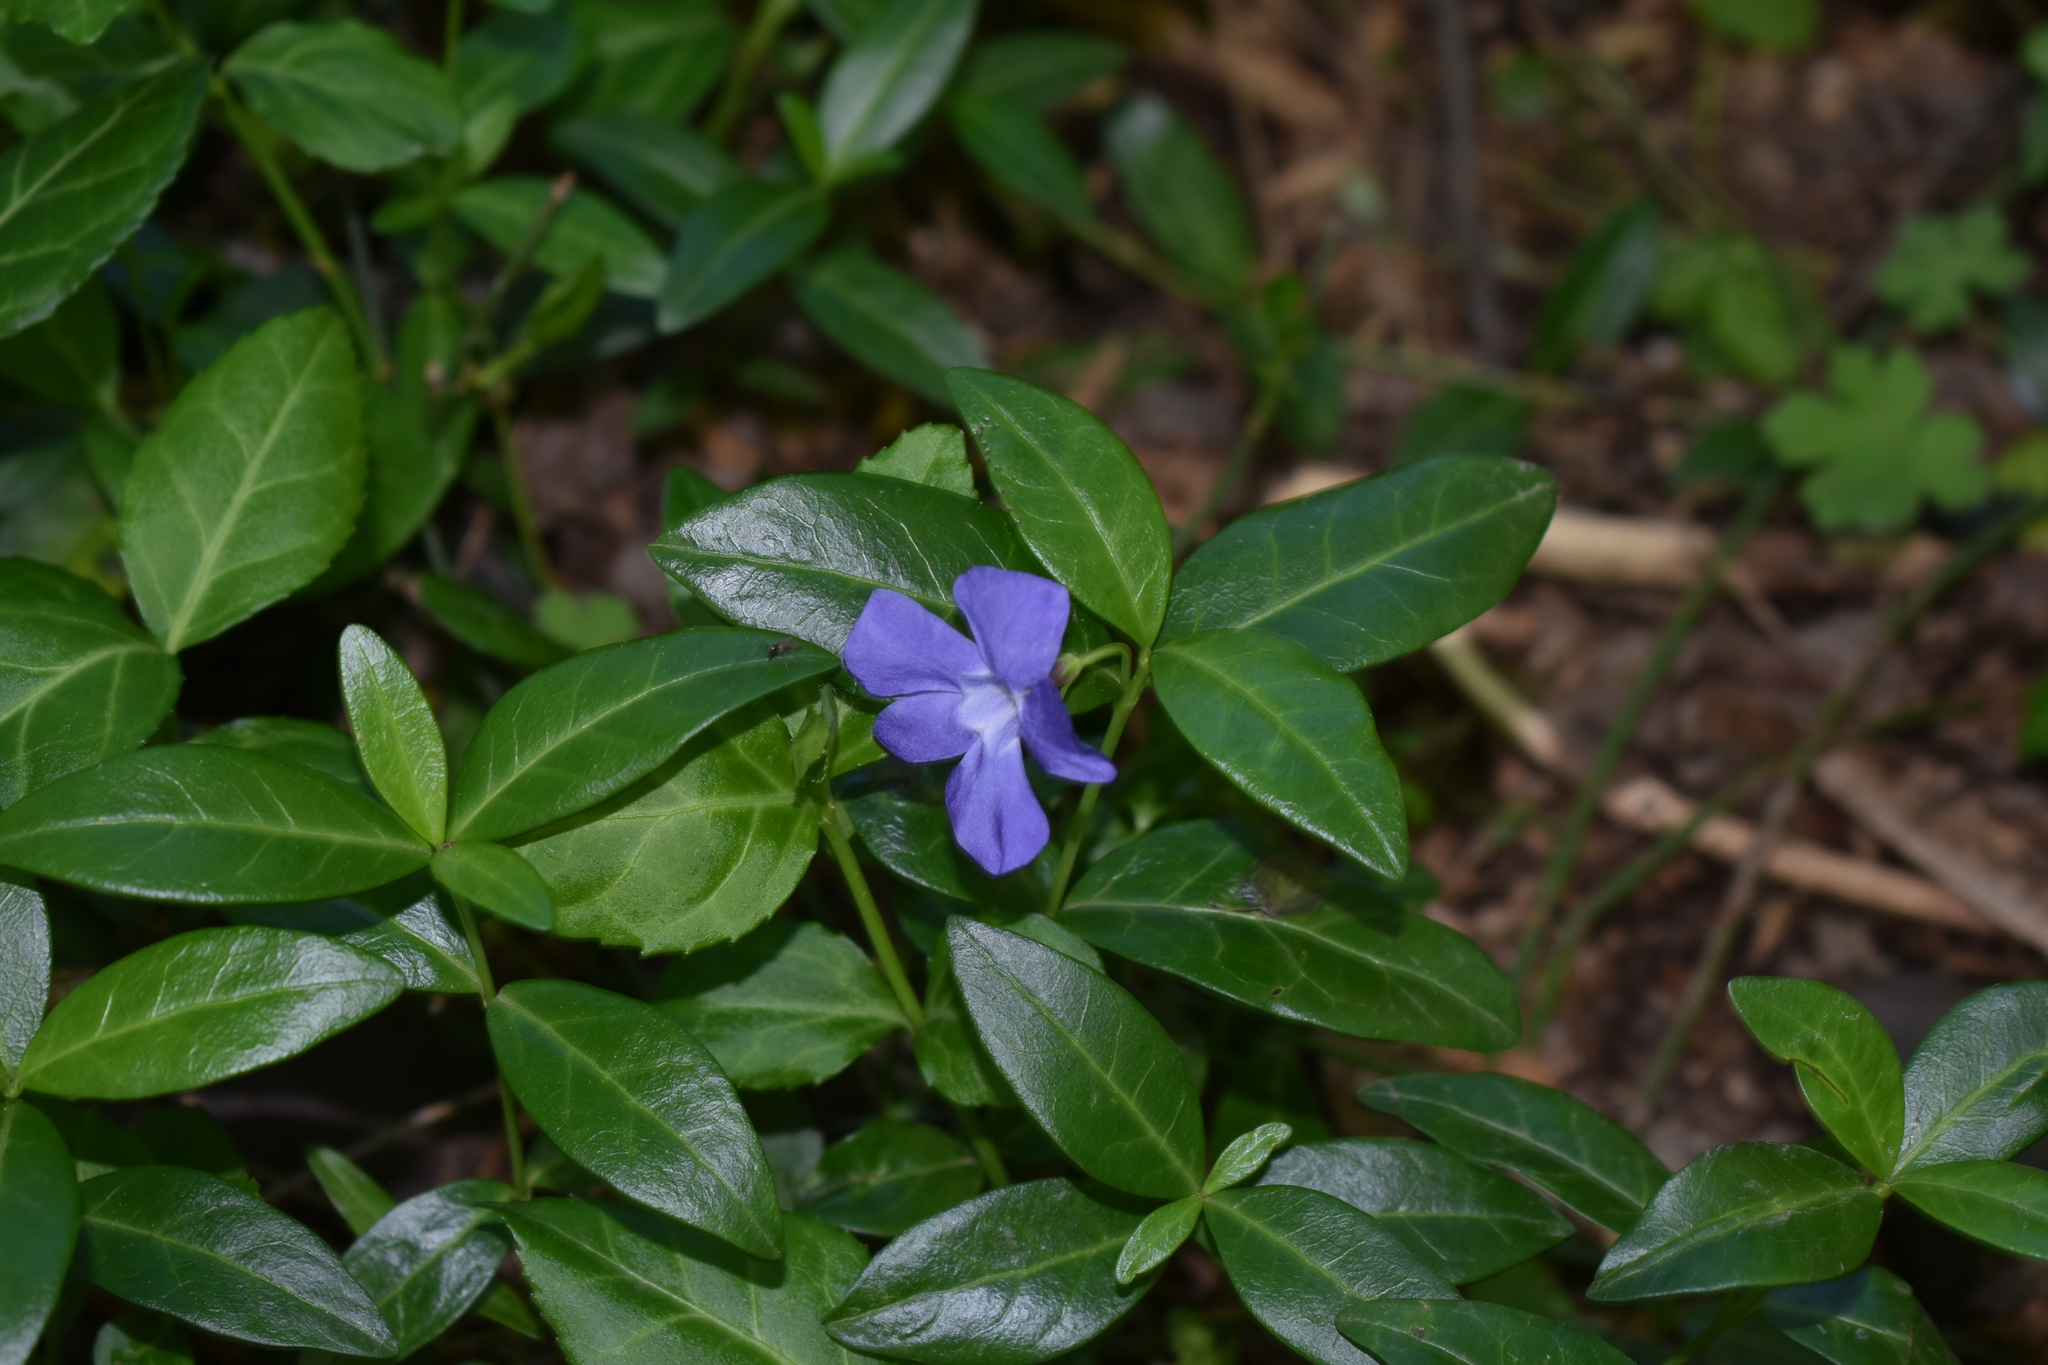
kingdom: Plantae
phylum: Tracheophyta
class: Magnoliopsida
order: Gentianales
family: Apocynaceae
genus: Vinca
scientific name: Vinca minor
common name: Lesser periwinkle
